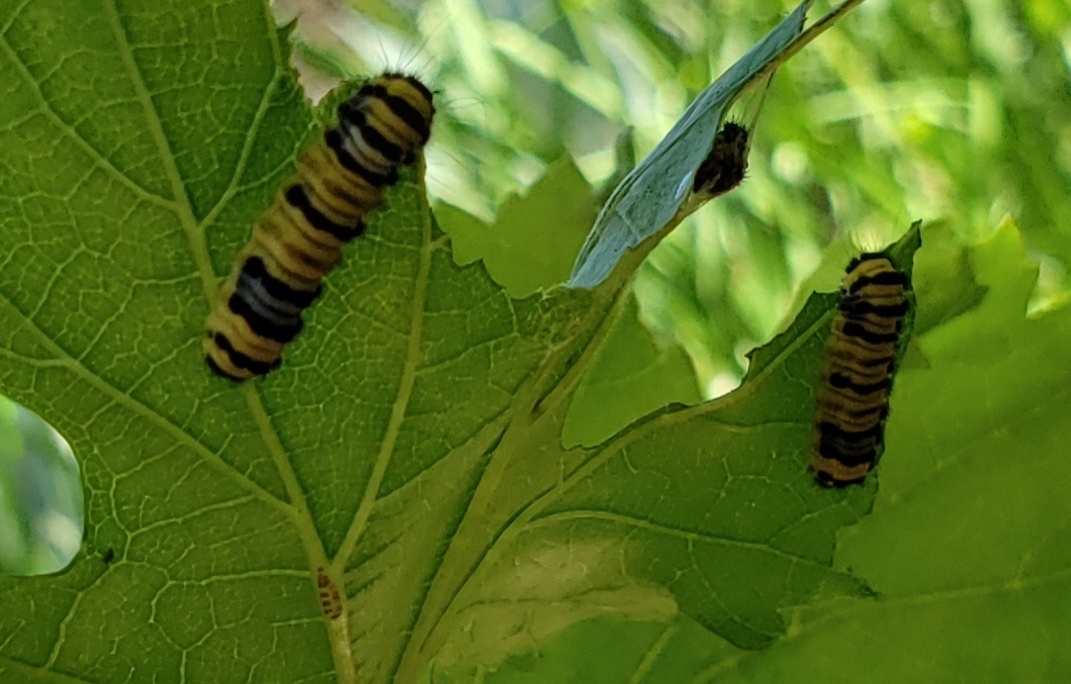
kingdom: Animalia
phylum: Arthropoda
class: Insecta
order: Lepidoptera
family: Zygaenidae
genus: Harrisina
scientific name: Harrisina metallica
